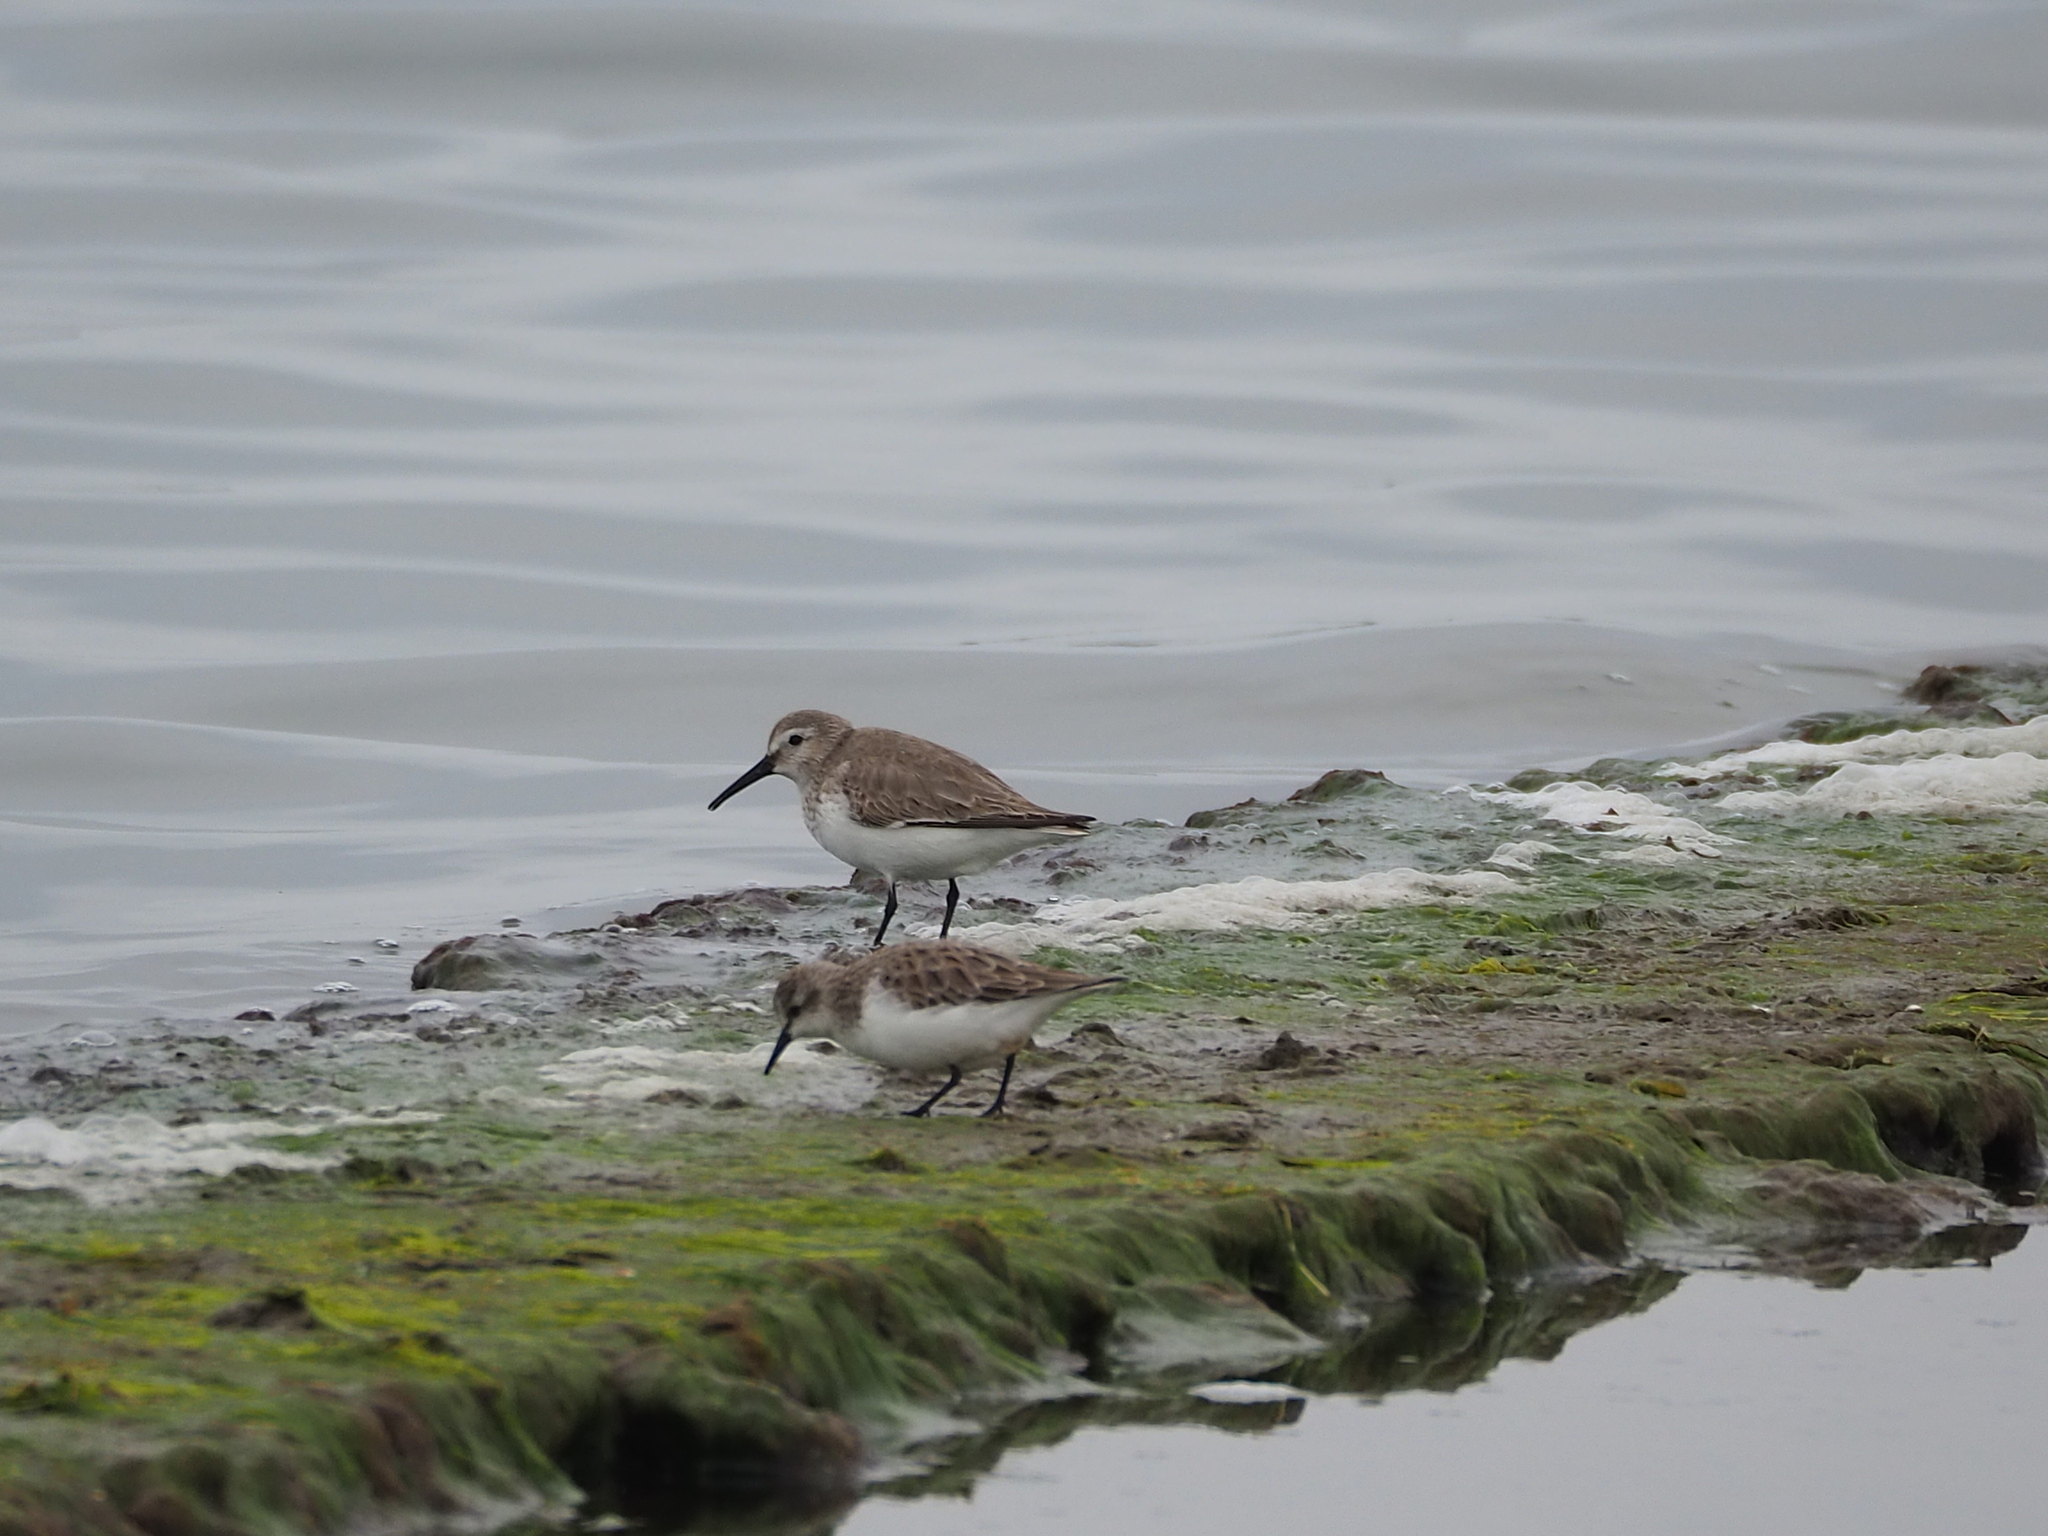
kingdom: Animalia
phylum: Chordata
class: Aves
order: Charadriiformes
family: Scolopacidae
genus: Calidris
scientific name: Calidris alpina
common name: Dunlin
